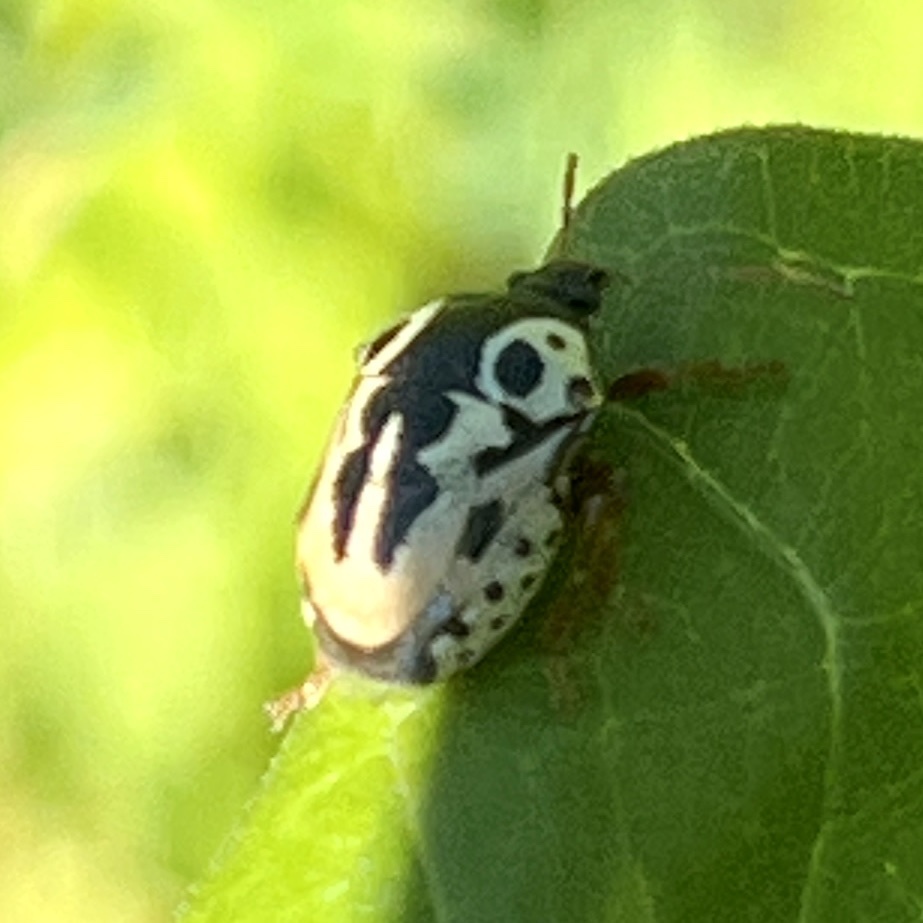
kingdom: Animalia
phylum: Arthropoda
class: Insecta
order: Hemiptera
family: Pentatomidae
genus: Stiretrus
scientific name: Stiretrus anchorago
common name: Anchor stink bug
